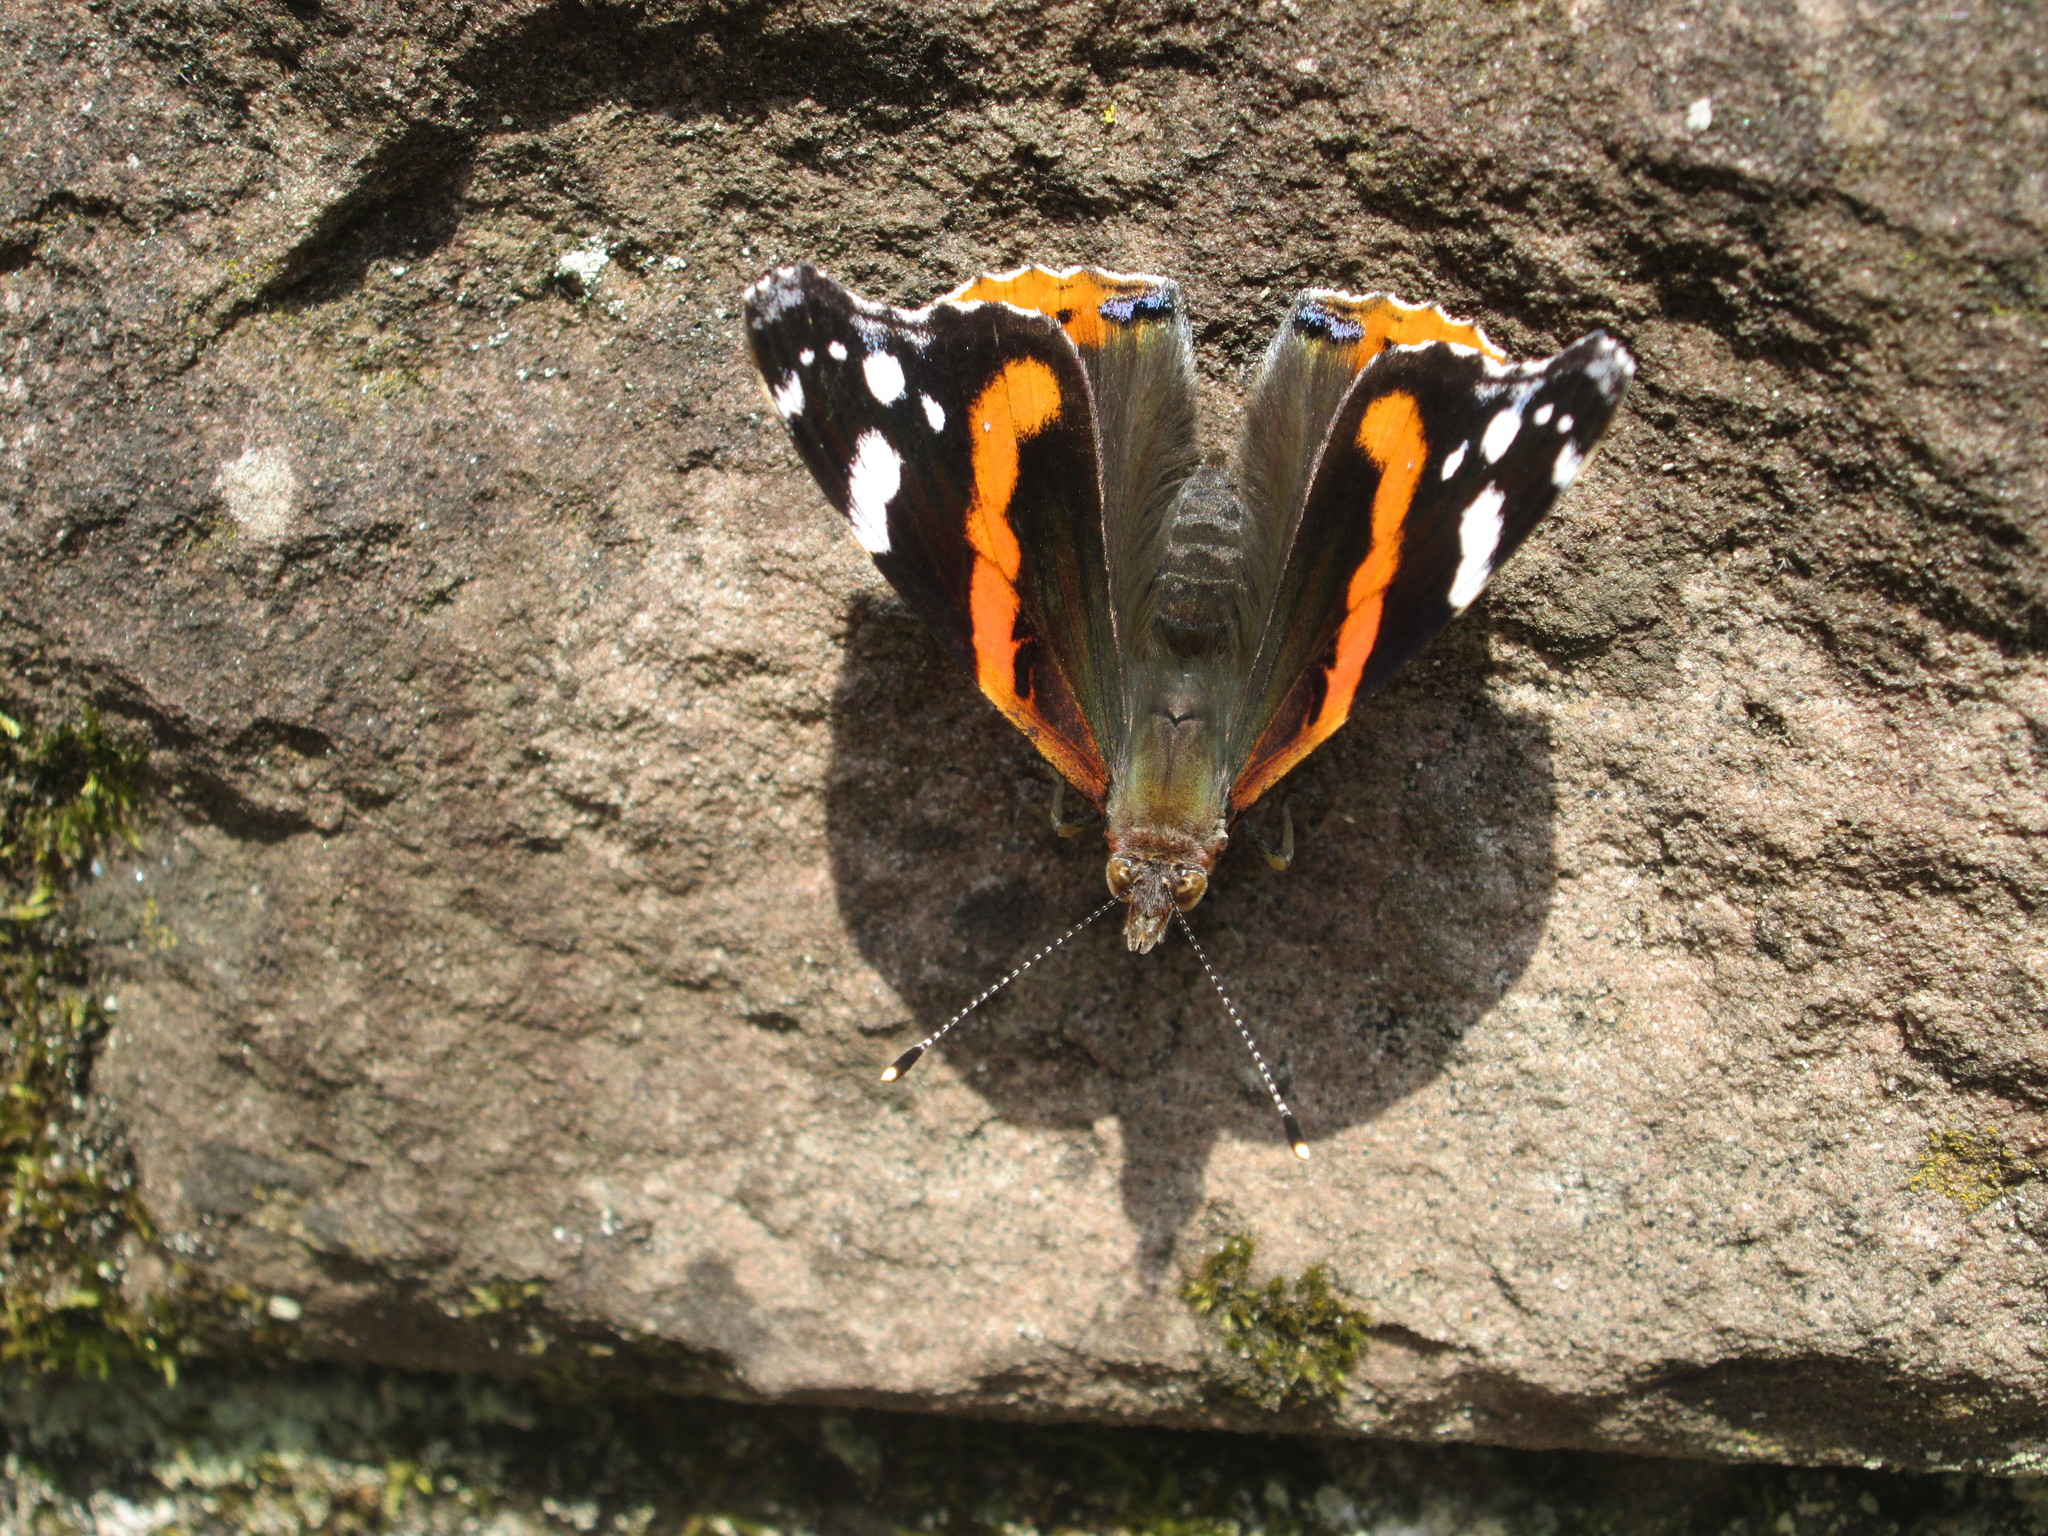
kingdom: Animalia
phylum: Arthropoda
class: Insecta
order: Lepidoptera
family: Nymphalidae
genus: Vanessa
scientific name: Vanessa atalanta
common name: Red admiral
